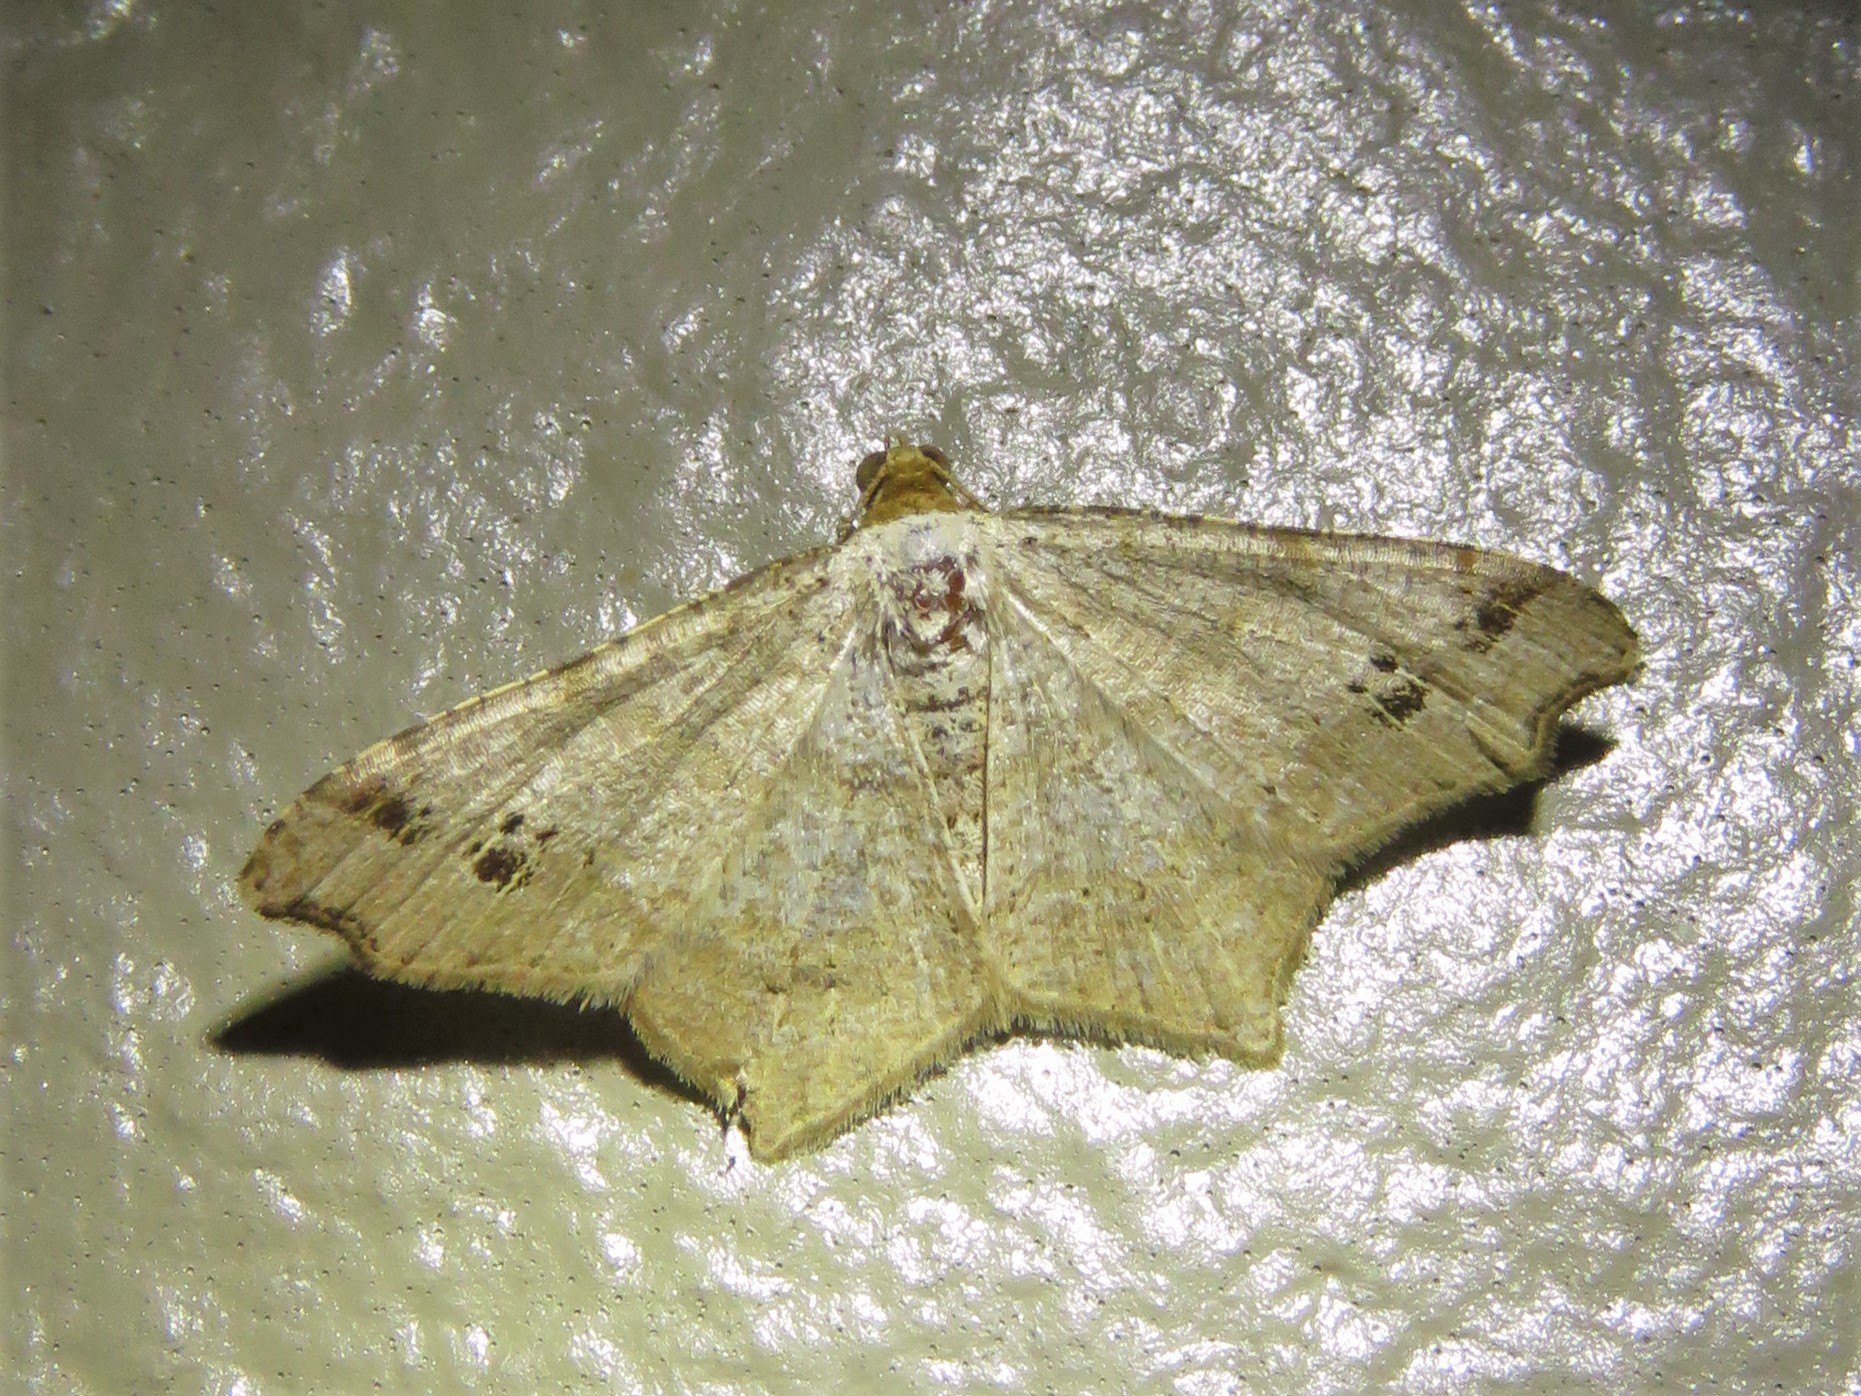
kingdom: Animalia
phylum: Arthropoda
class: Insecta
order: Lepidoptera
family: Geometridae
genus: Macaria
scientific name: Macaria aemulataria
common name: Common angle
